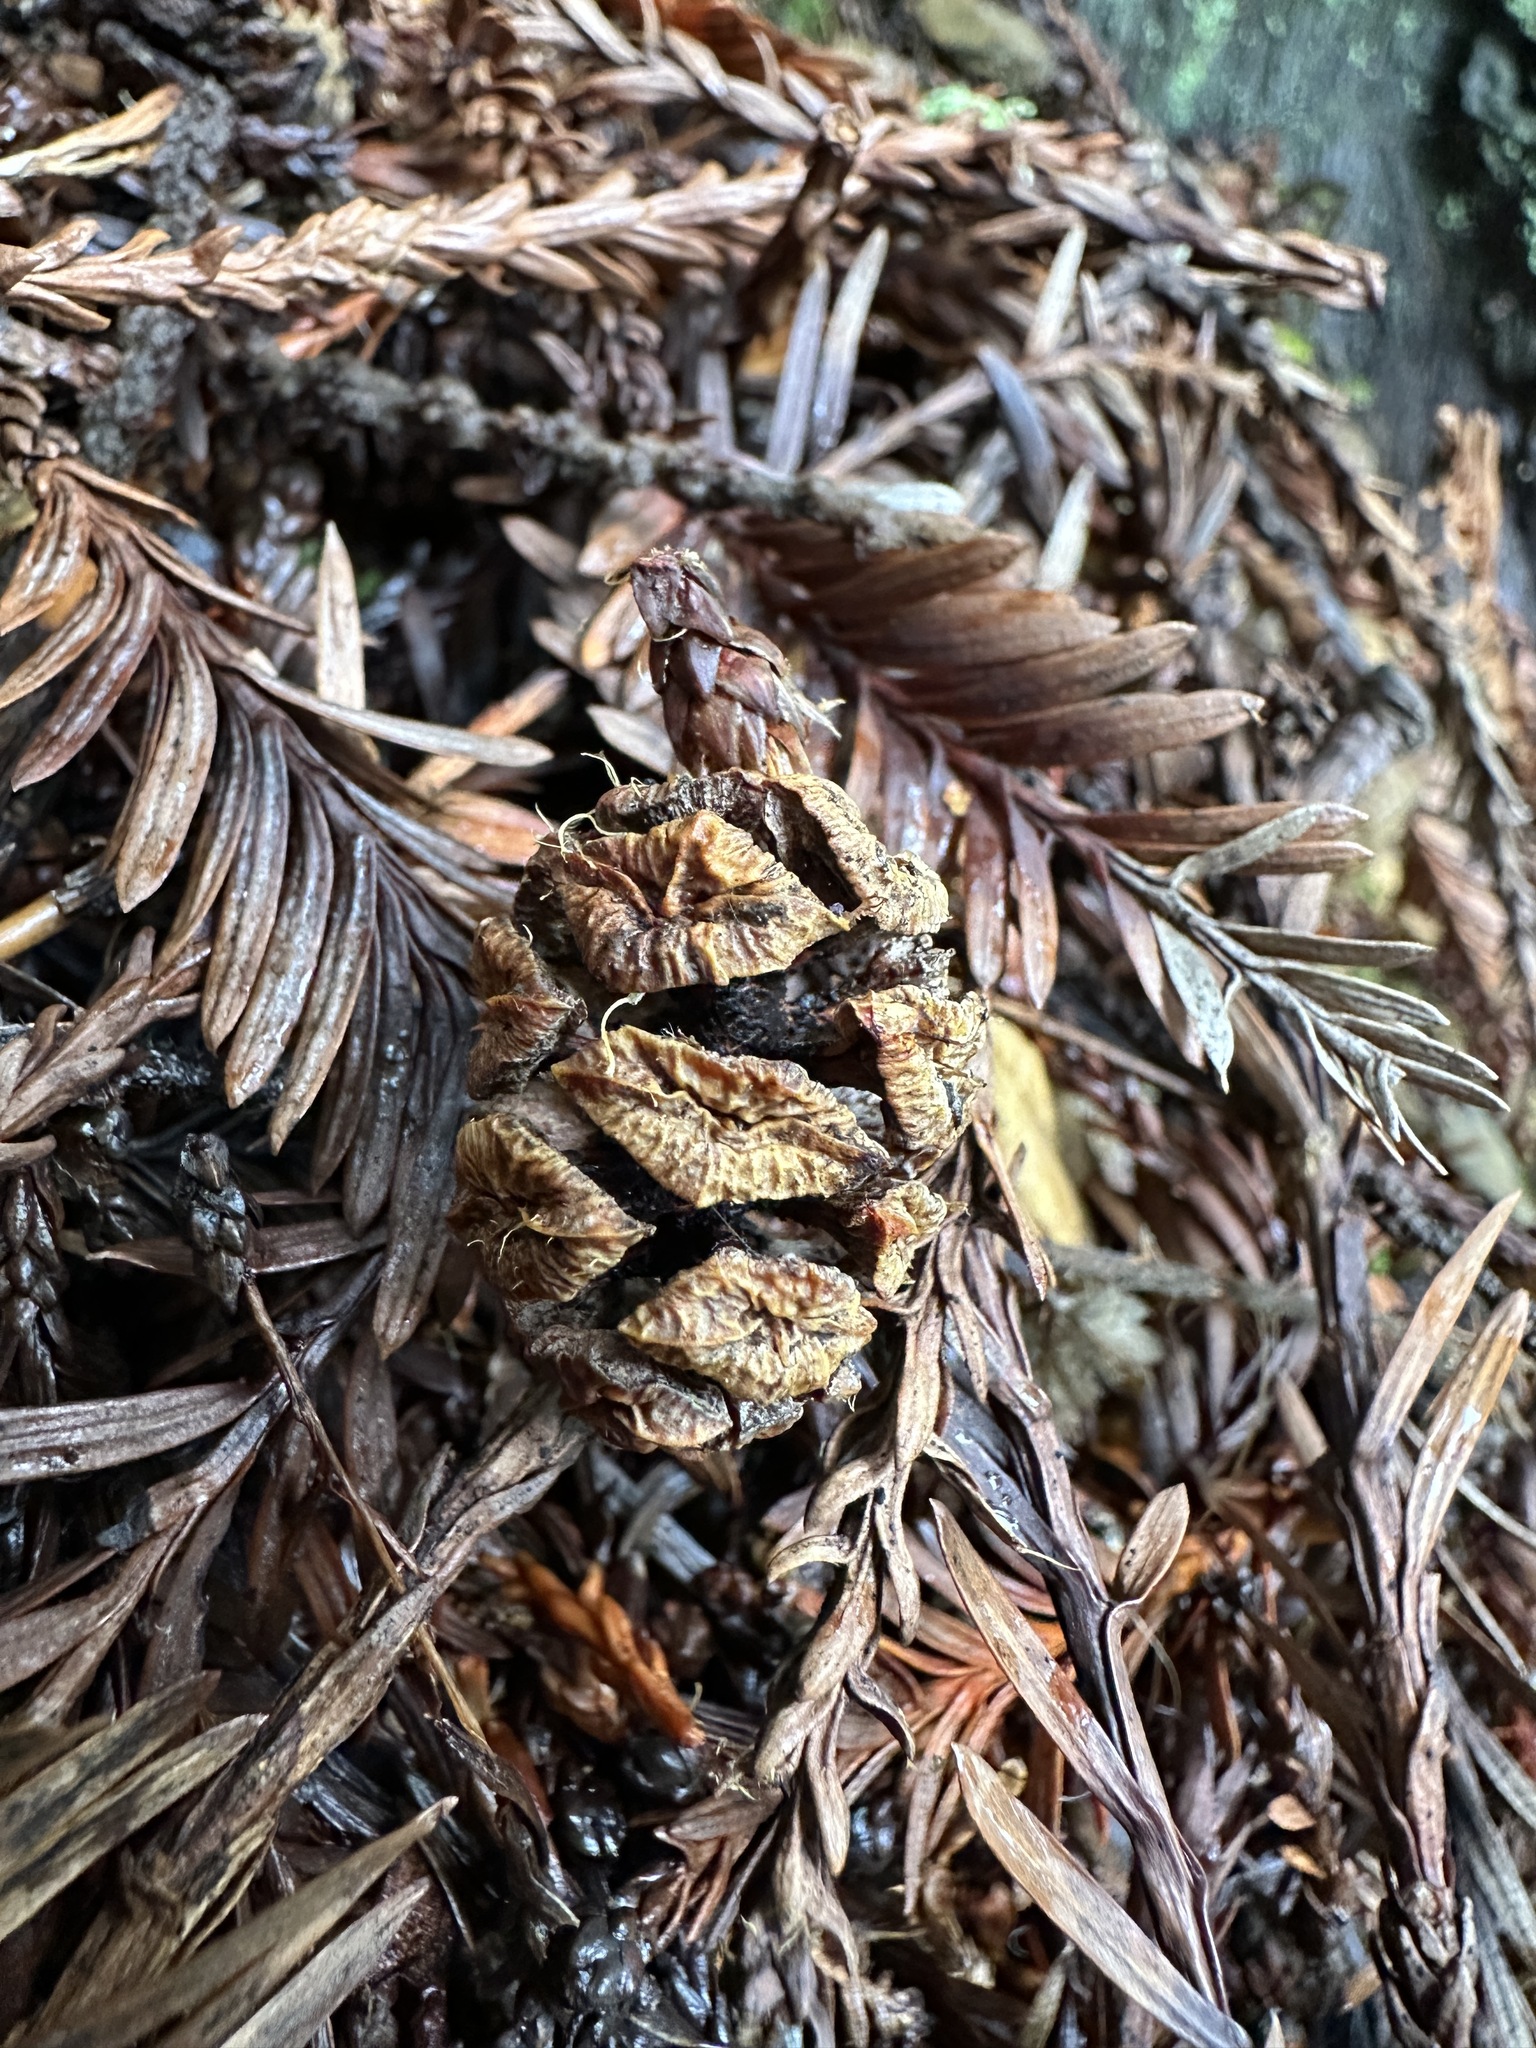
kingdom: Plantae
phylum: Tracheophyta
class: Pinopsida
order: Pinales
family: Cupressaceae
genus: Sequoia
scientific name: Sequoia sempervirens
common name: Coast redwood
